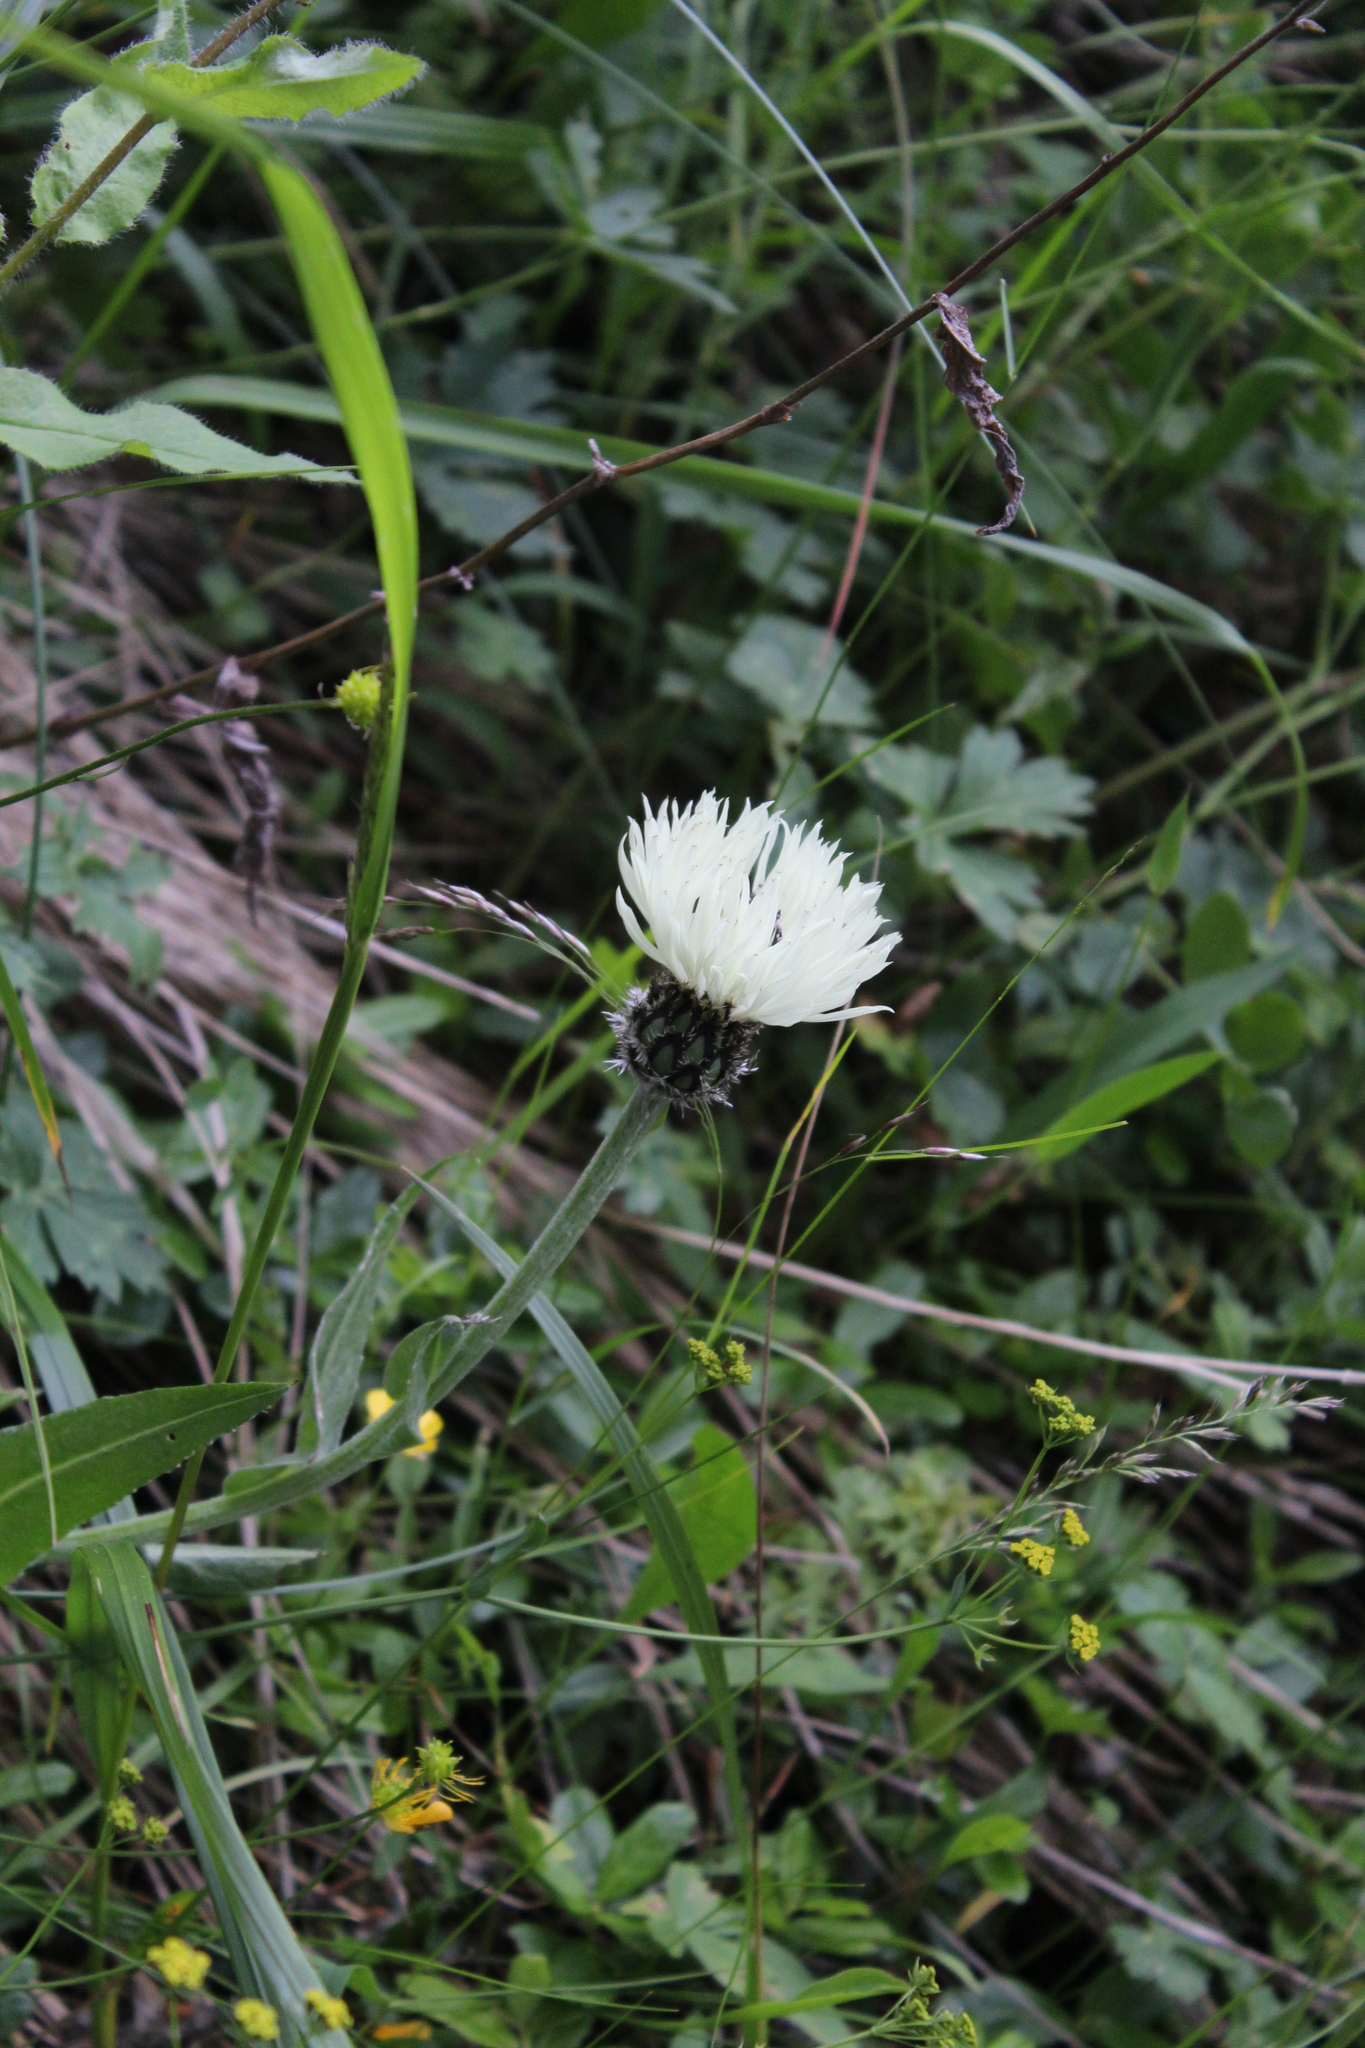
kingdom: Plantae
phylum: Tracheophyta
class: Magnoliopsida
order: Asterales
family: Asteraceae
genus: Centaurea
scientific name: Centaurea cheiranthifolia
